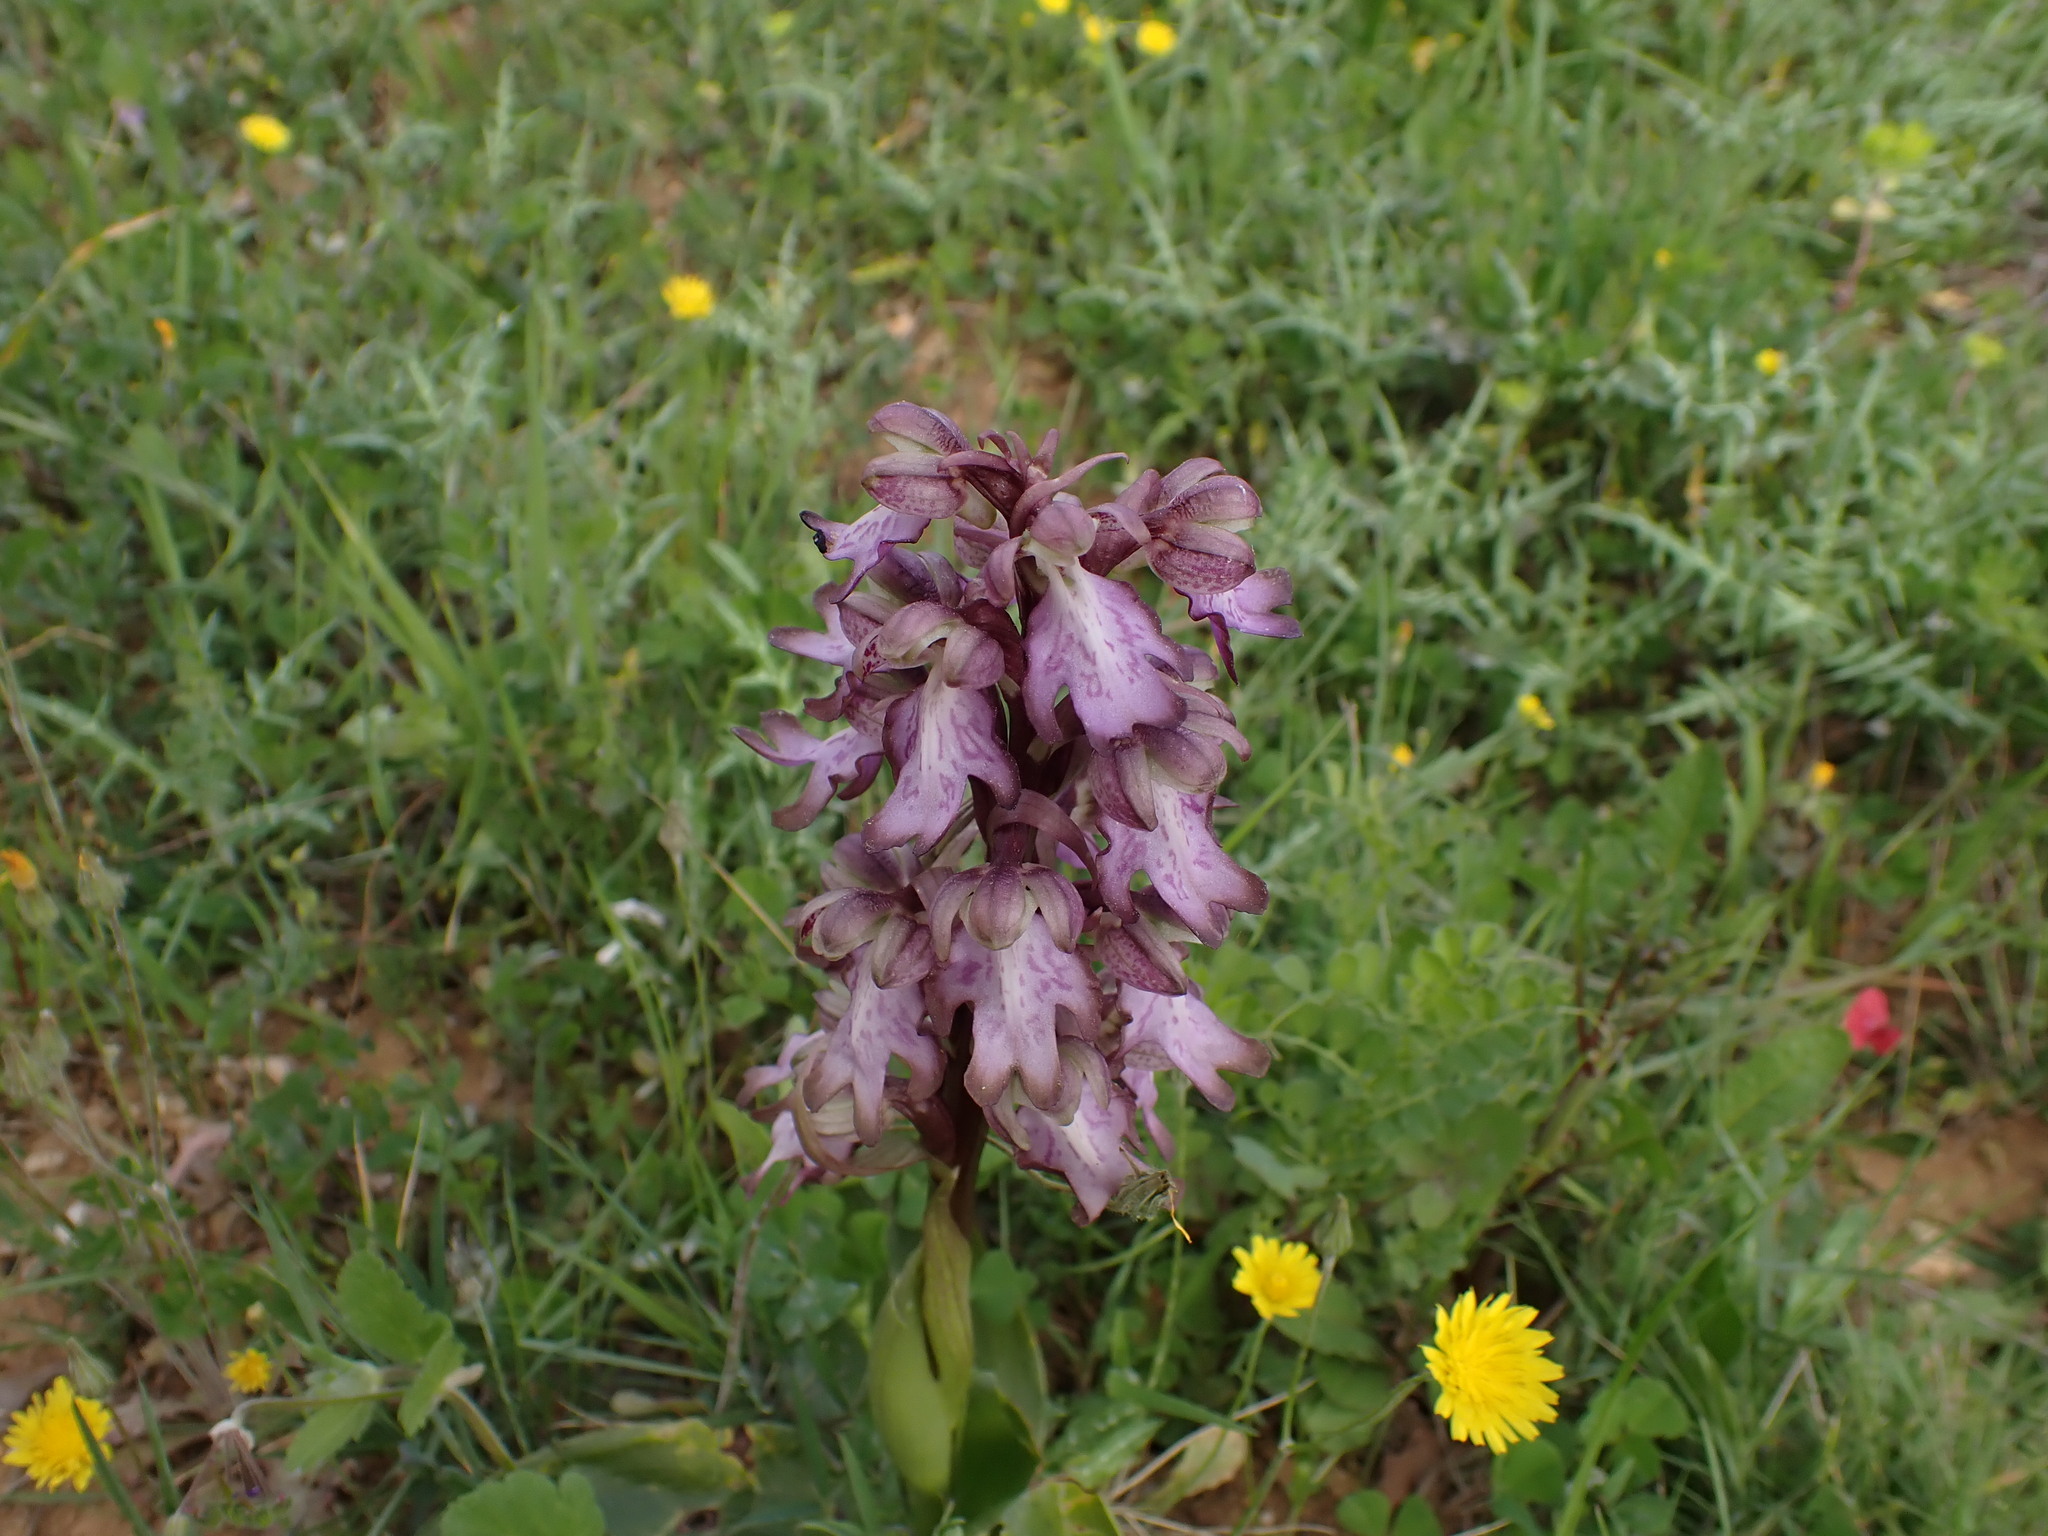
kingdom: Plantae
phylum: Tracheophyta
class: Liliopsida
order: Asparagales
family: Orchidaceae
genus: Himantoglossum
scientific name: Himantoglossum robertianum
